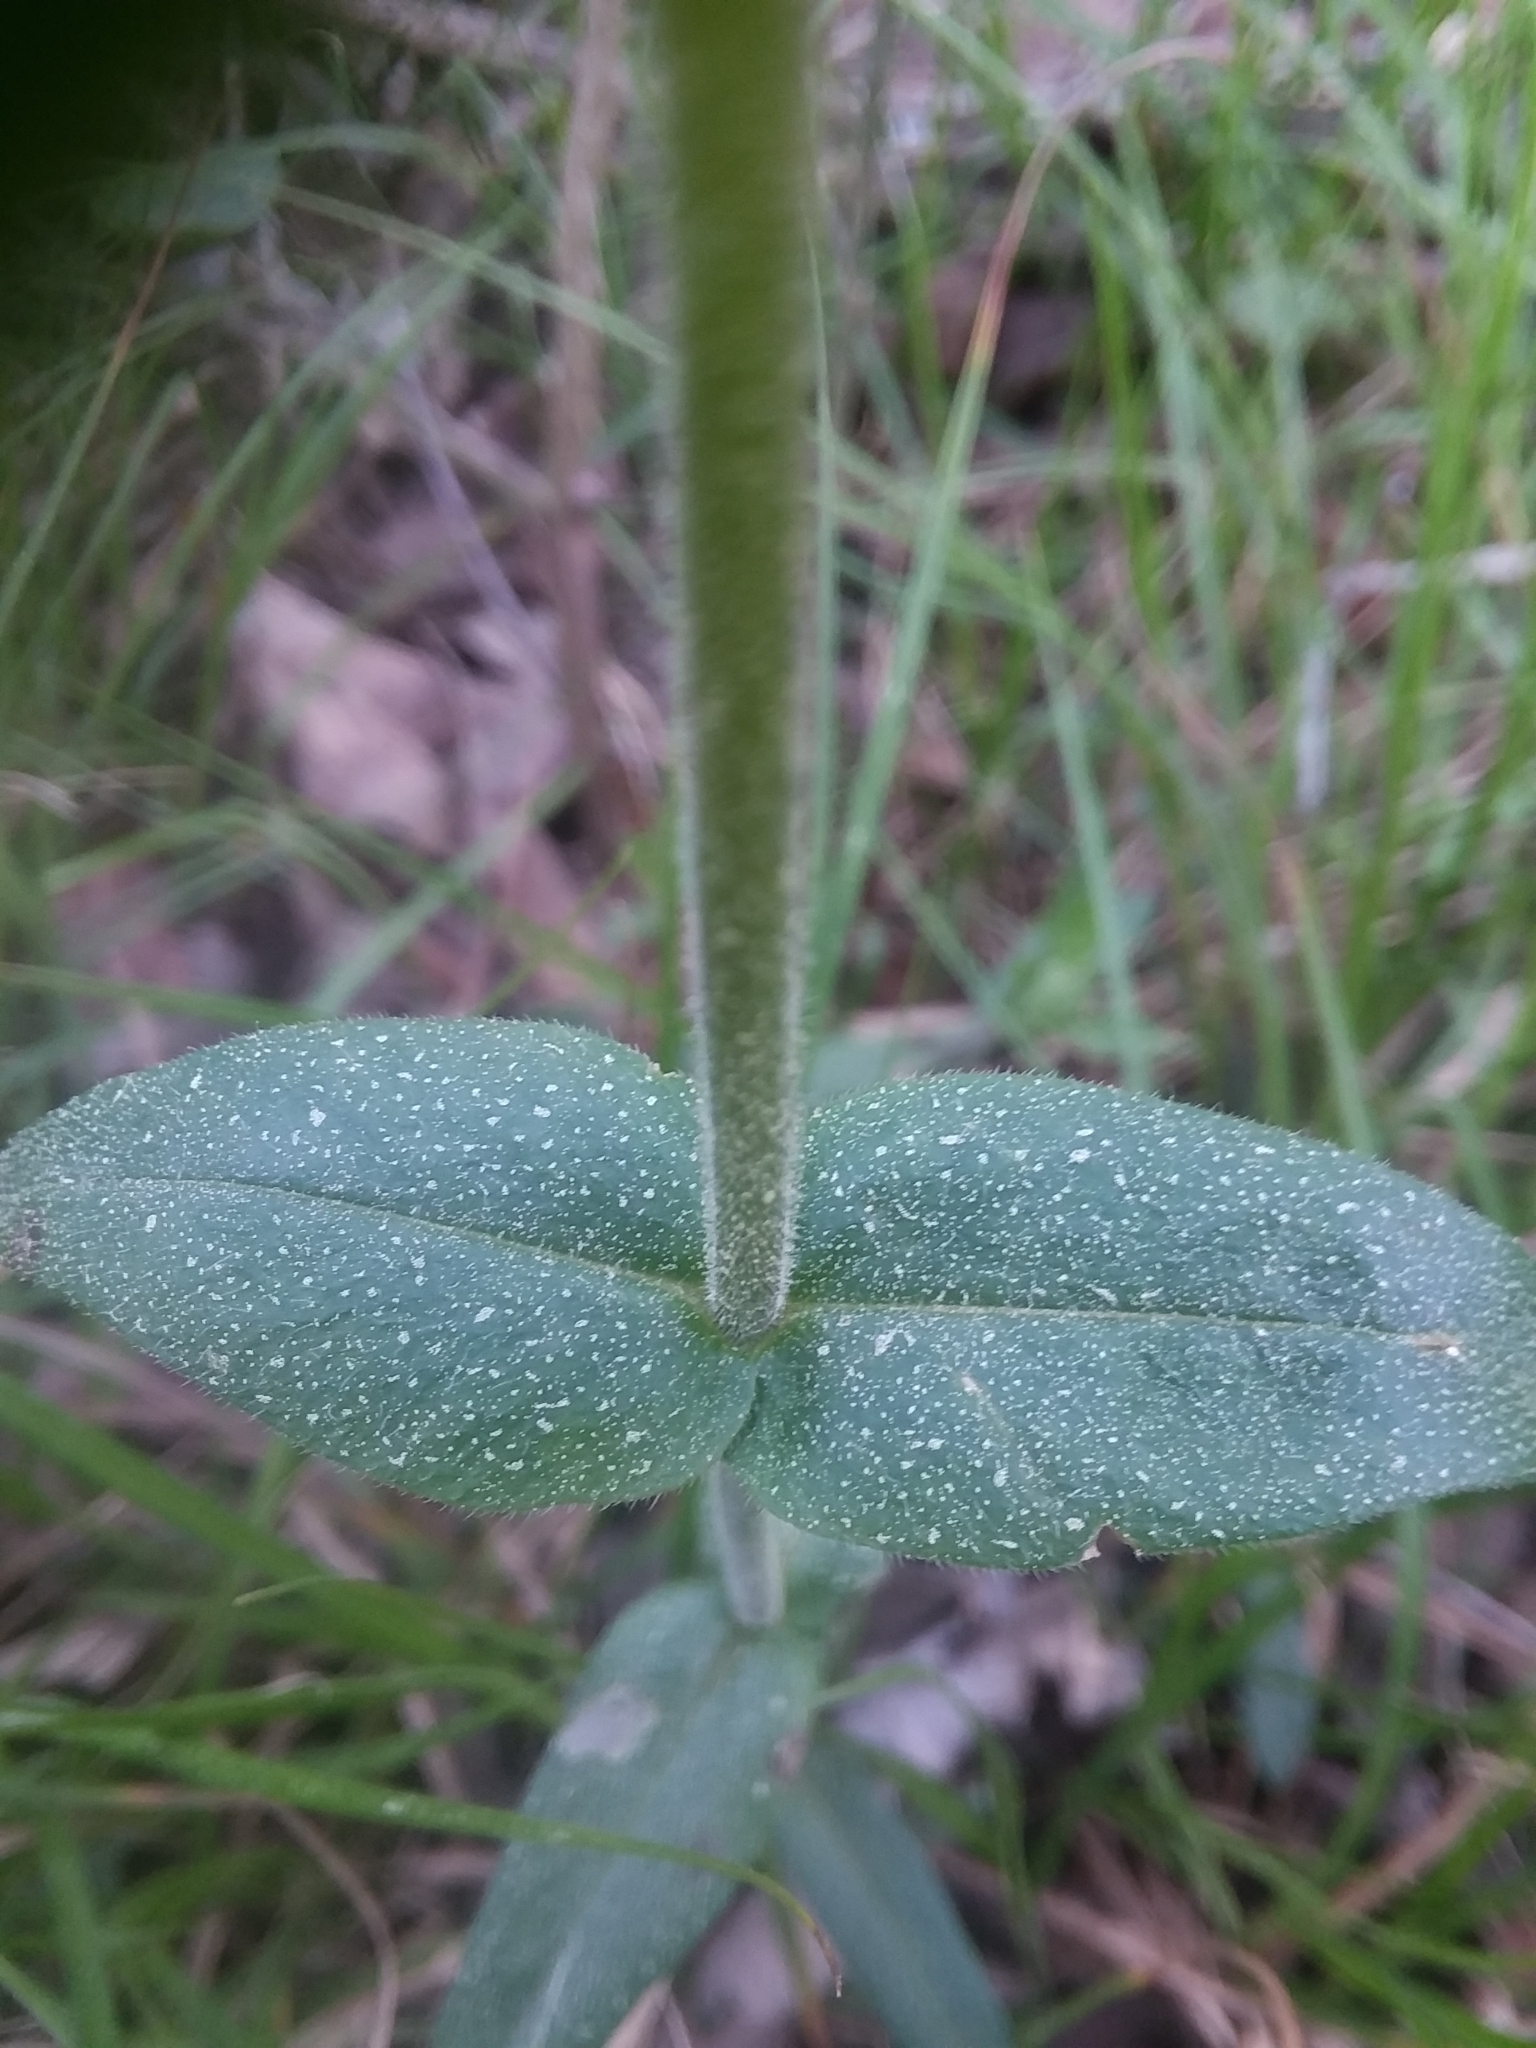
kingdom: Plantae
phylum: Tracheophyta
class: Magnoliopsida
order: Ericales
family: Polemoniaceae
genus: Phlox
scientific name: Phlox divaricata
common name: Blue phlox
